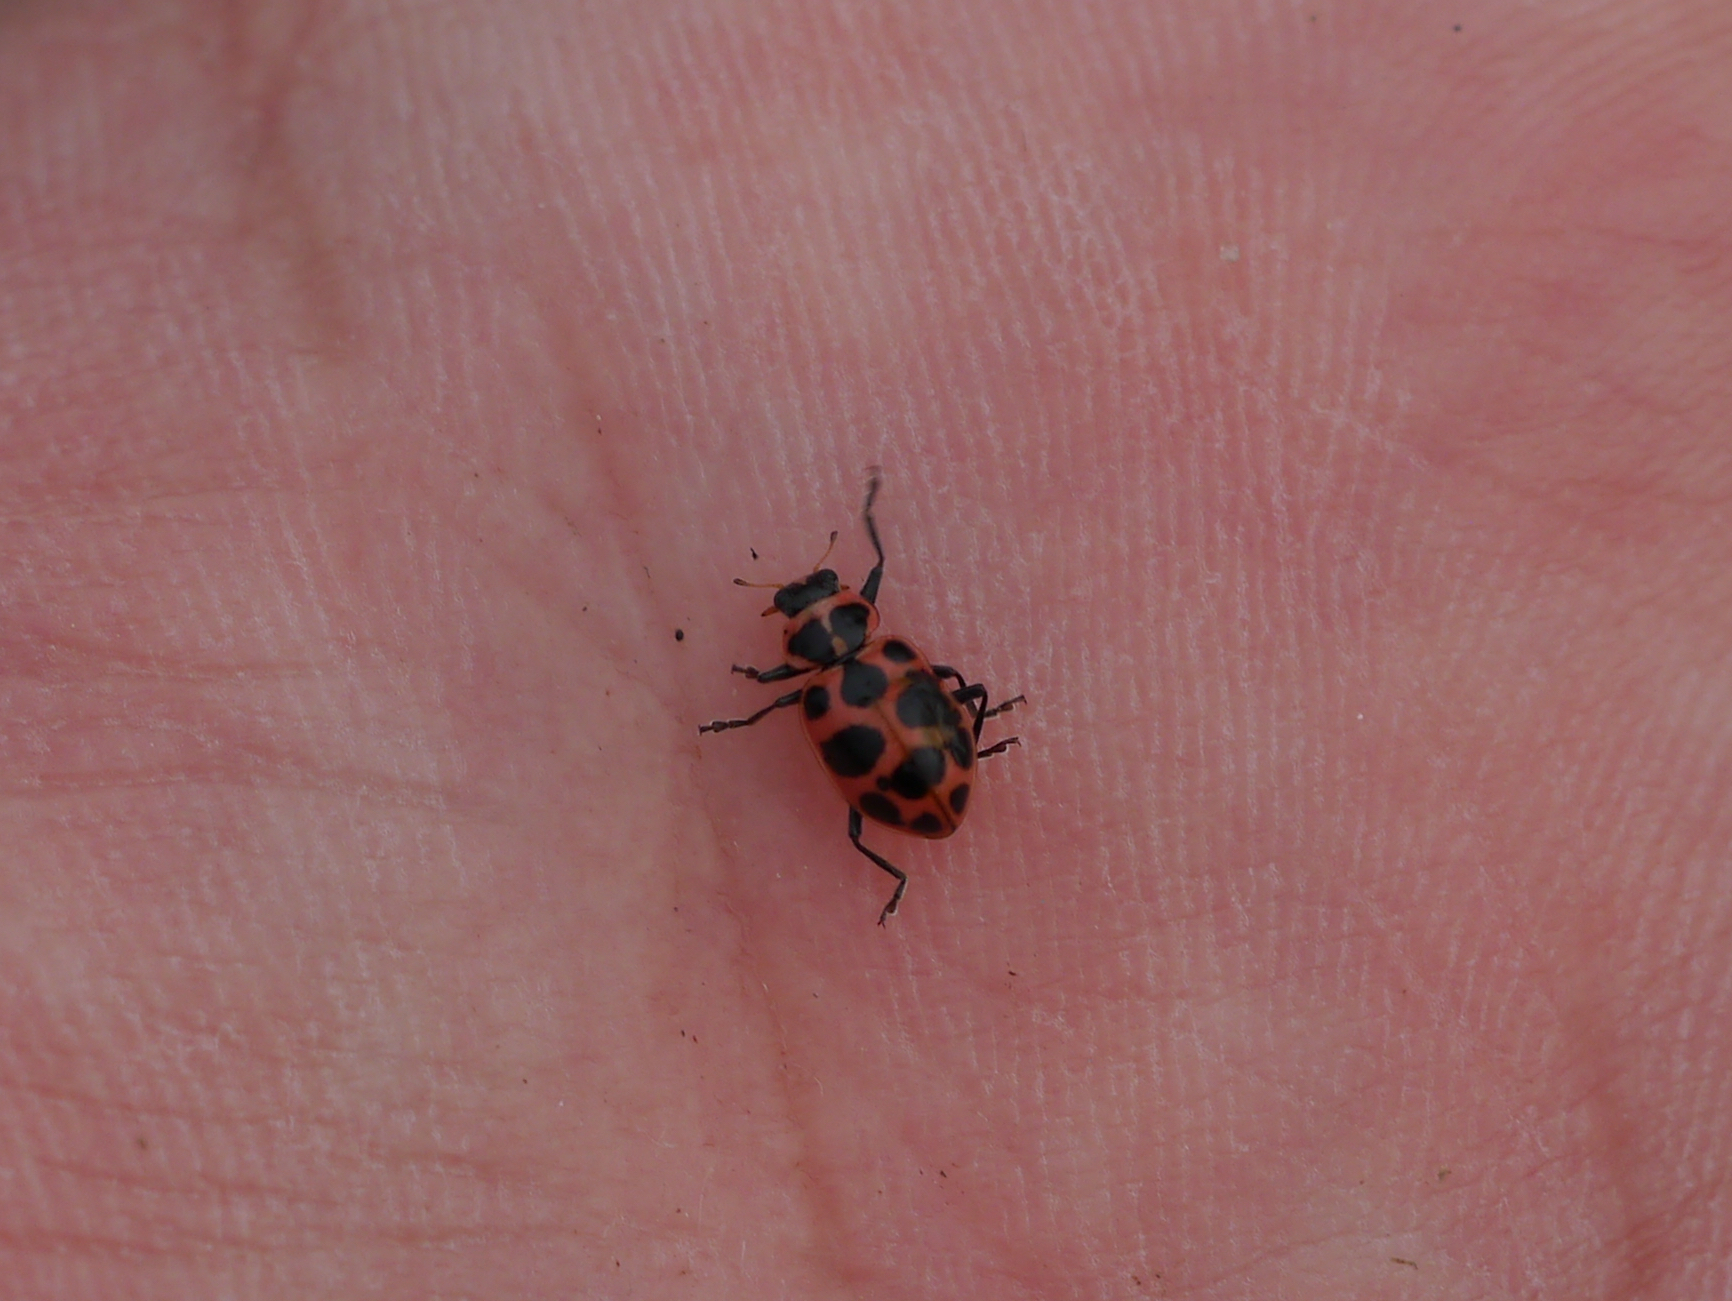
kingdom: Animalia
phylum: Arthropoda
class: Insecta
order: Coleoptera
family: Coccinellidae
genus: Coleomegilla
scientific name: Coleomegilla maculata
